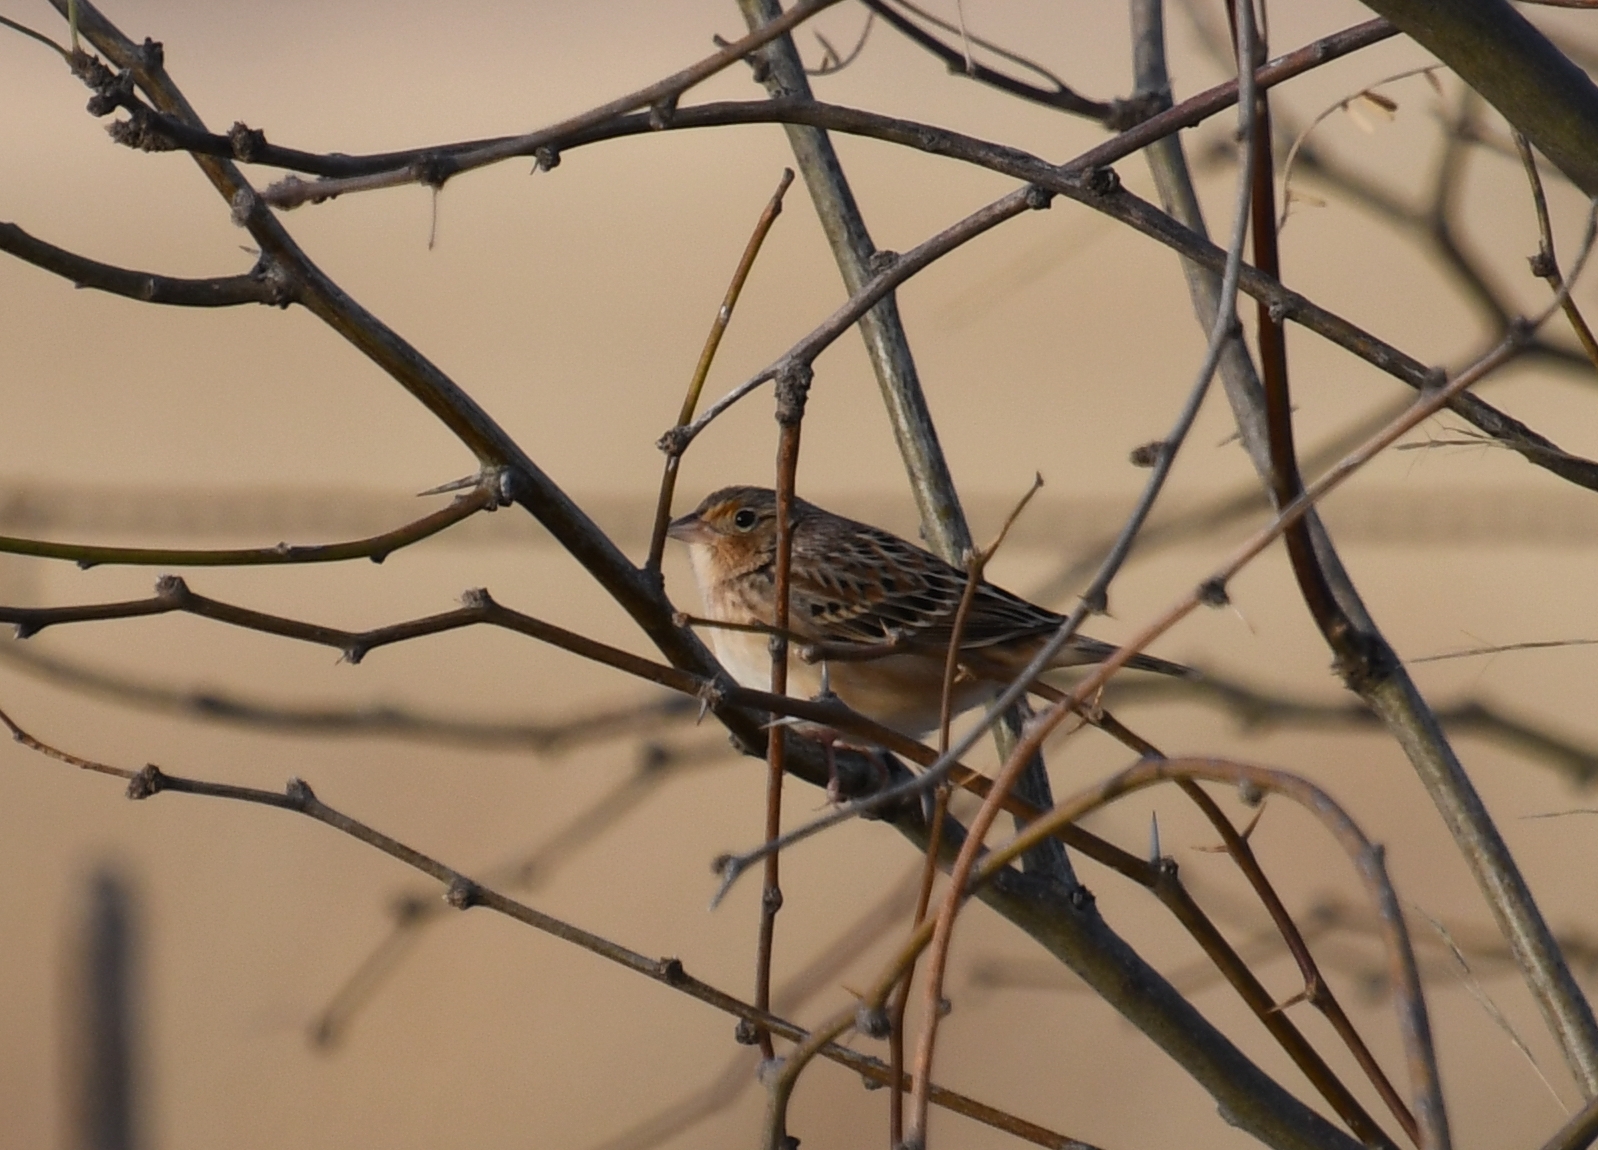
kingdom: Animalia
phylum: Chordata
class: Aves
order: Passeriformes
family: Passerellidae
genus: Ammodramus
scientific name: Ammodramus savannarum
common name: Grasshopper sparrow
